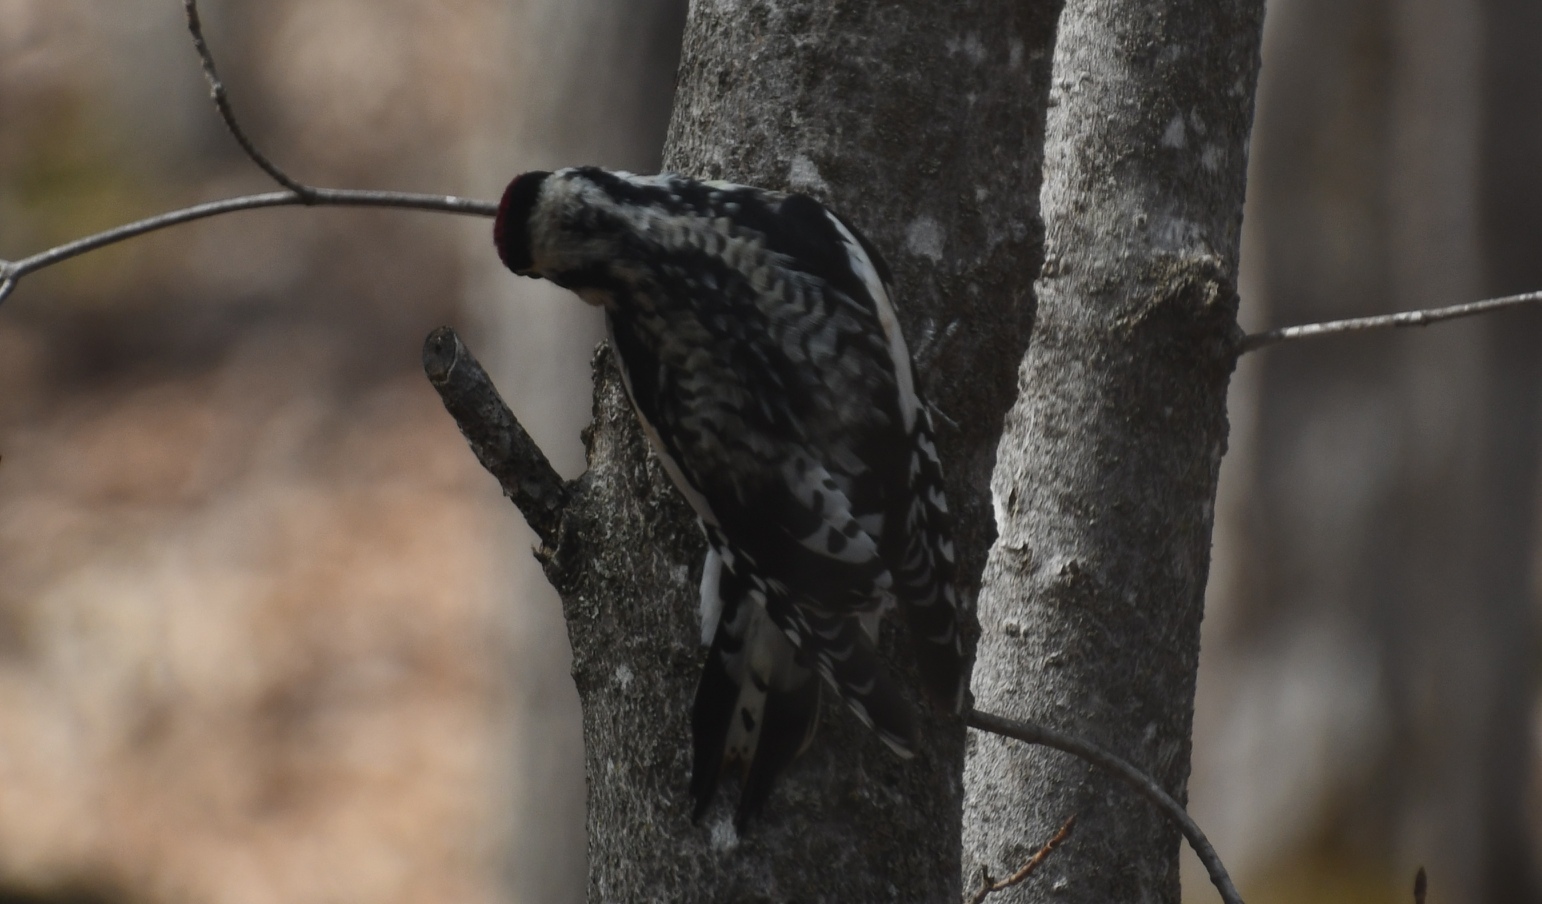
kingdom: Animalia
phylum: Chordata
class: Aves
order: Piciformes
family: Picidae
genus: Sphyrapicus
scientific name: Sphyrapicus varius
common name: Yellow-bellied sapsucker
